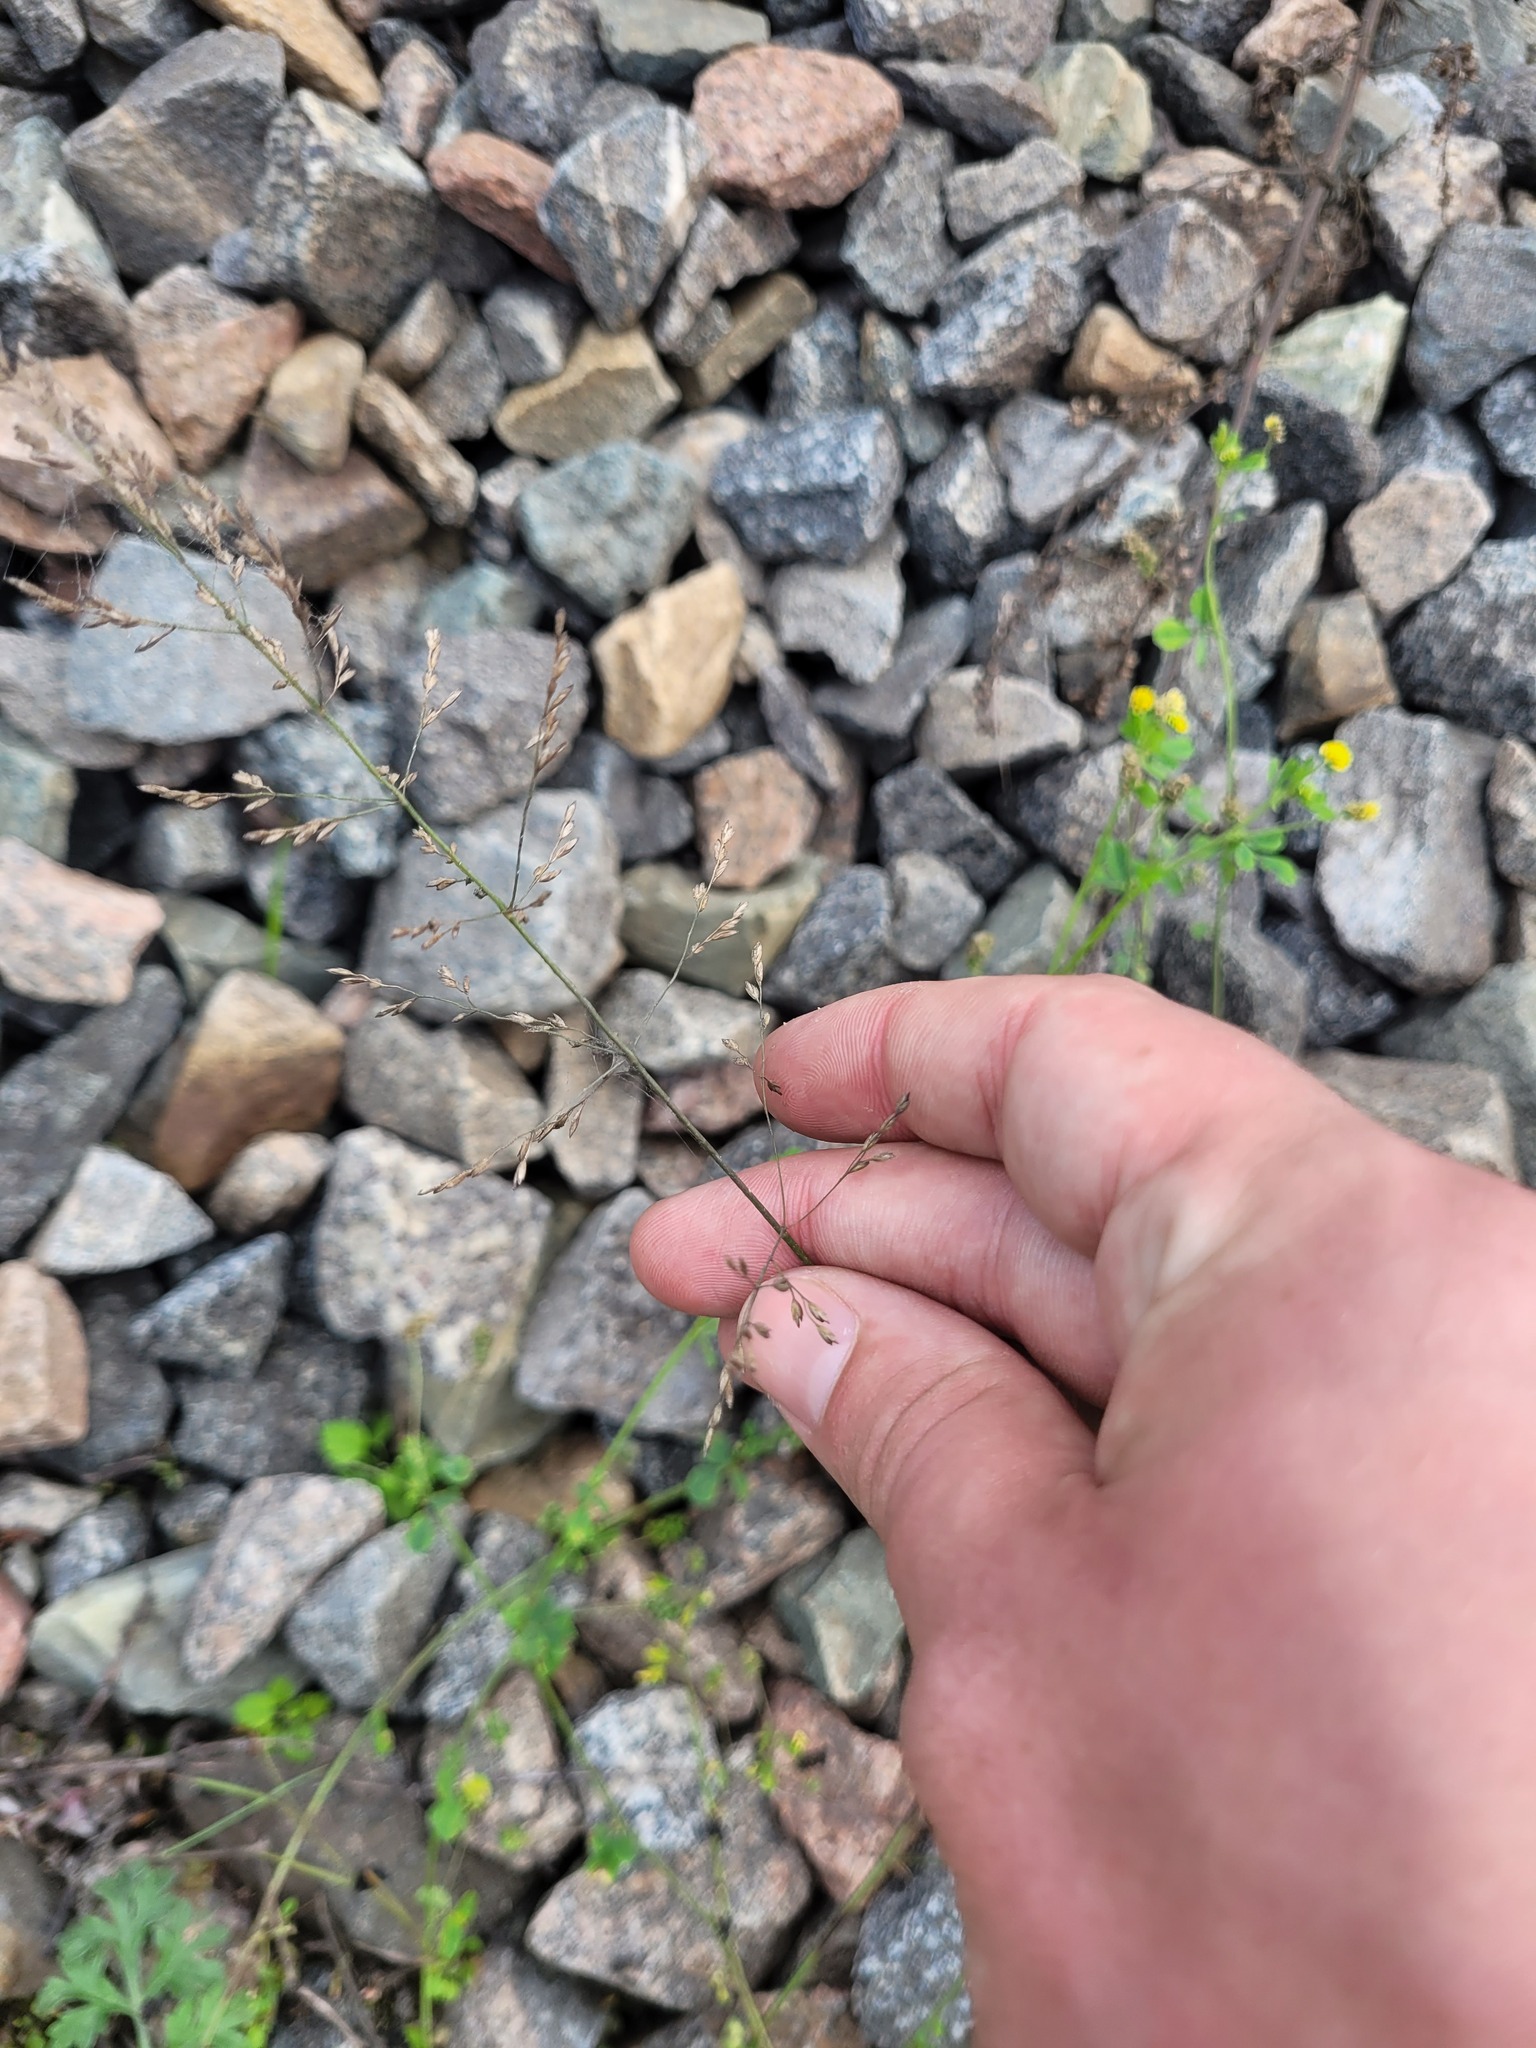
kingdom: Plantae
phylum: Tracheophyta
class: Liliopsida
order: Poales
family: Poaceae
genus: Poa
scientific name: Poa palustris
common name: Swamp meadow-grass
